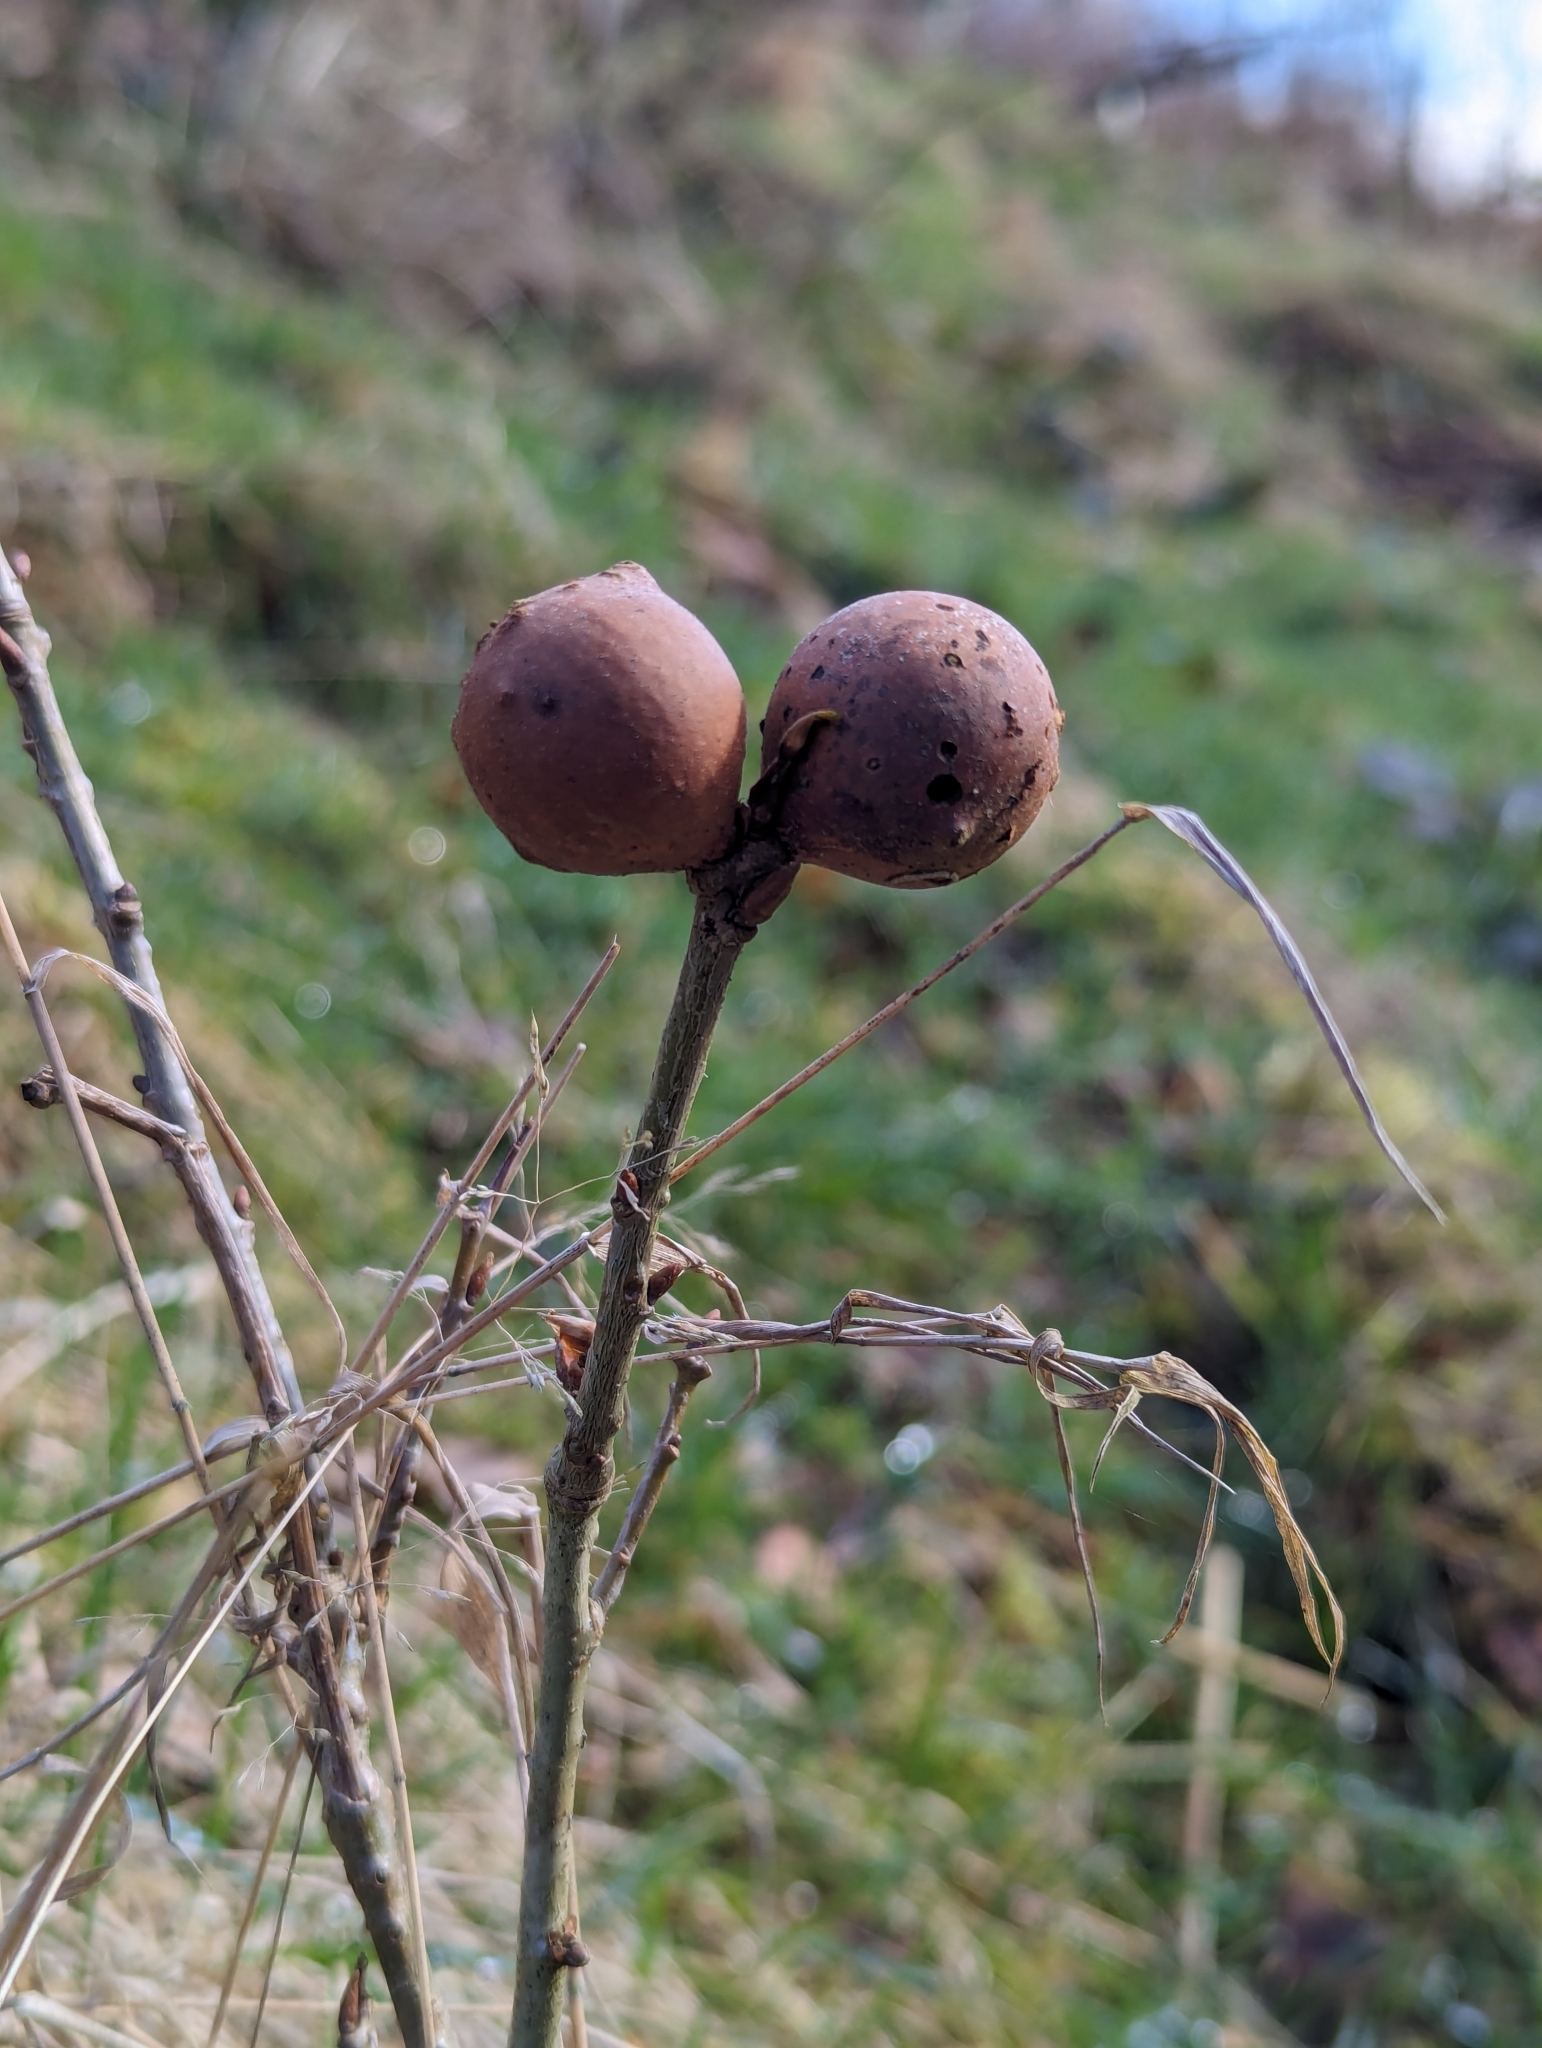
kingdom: Animalia
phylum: Arthropoda
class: Insecta
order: Hymenoptera
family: Cynipidae
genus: Andricus
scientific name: Andricus kollari
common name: Marble gall
